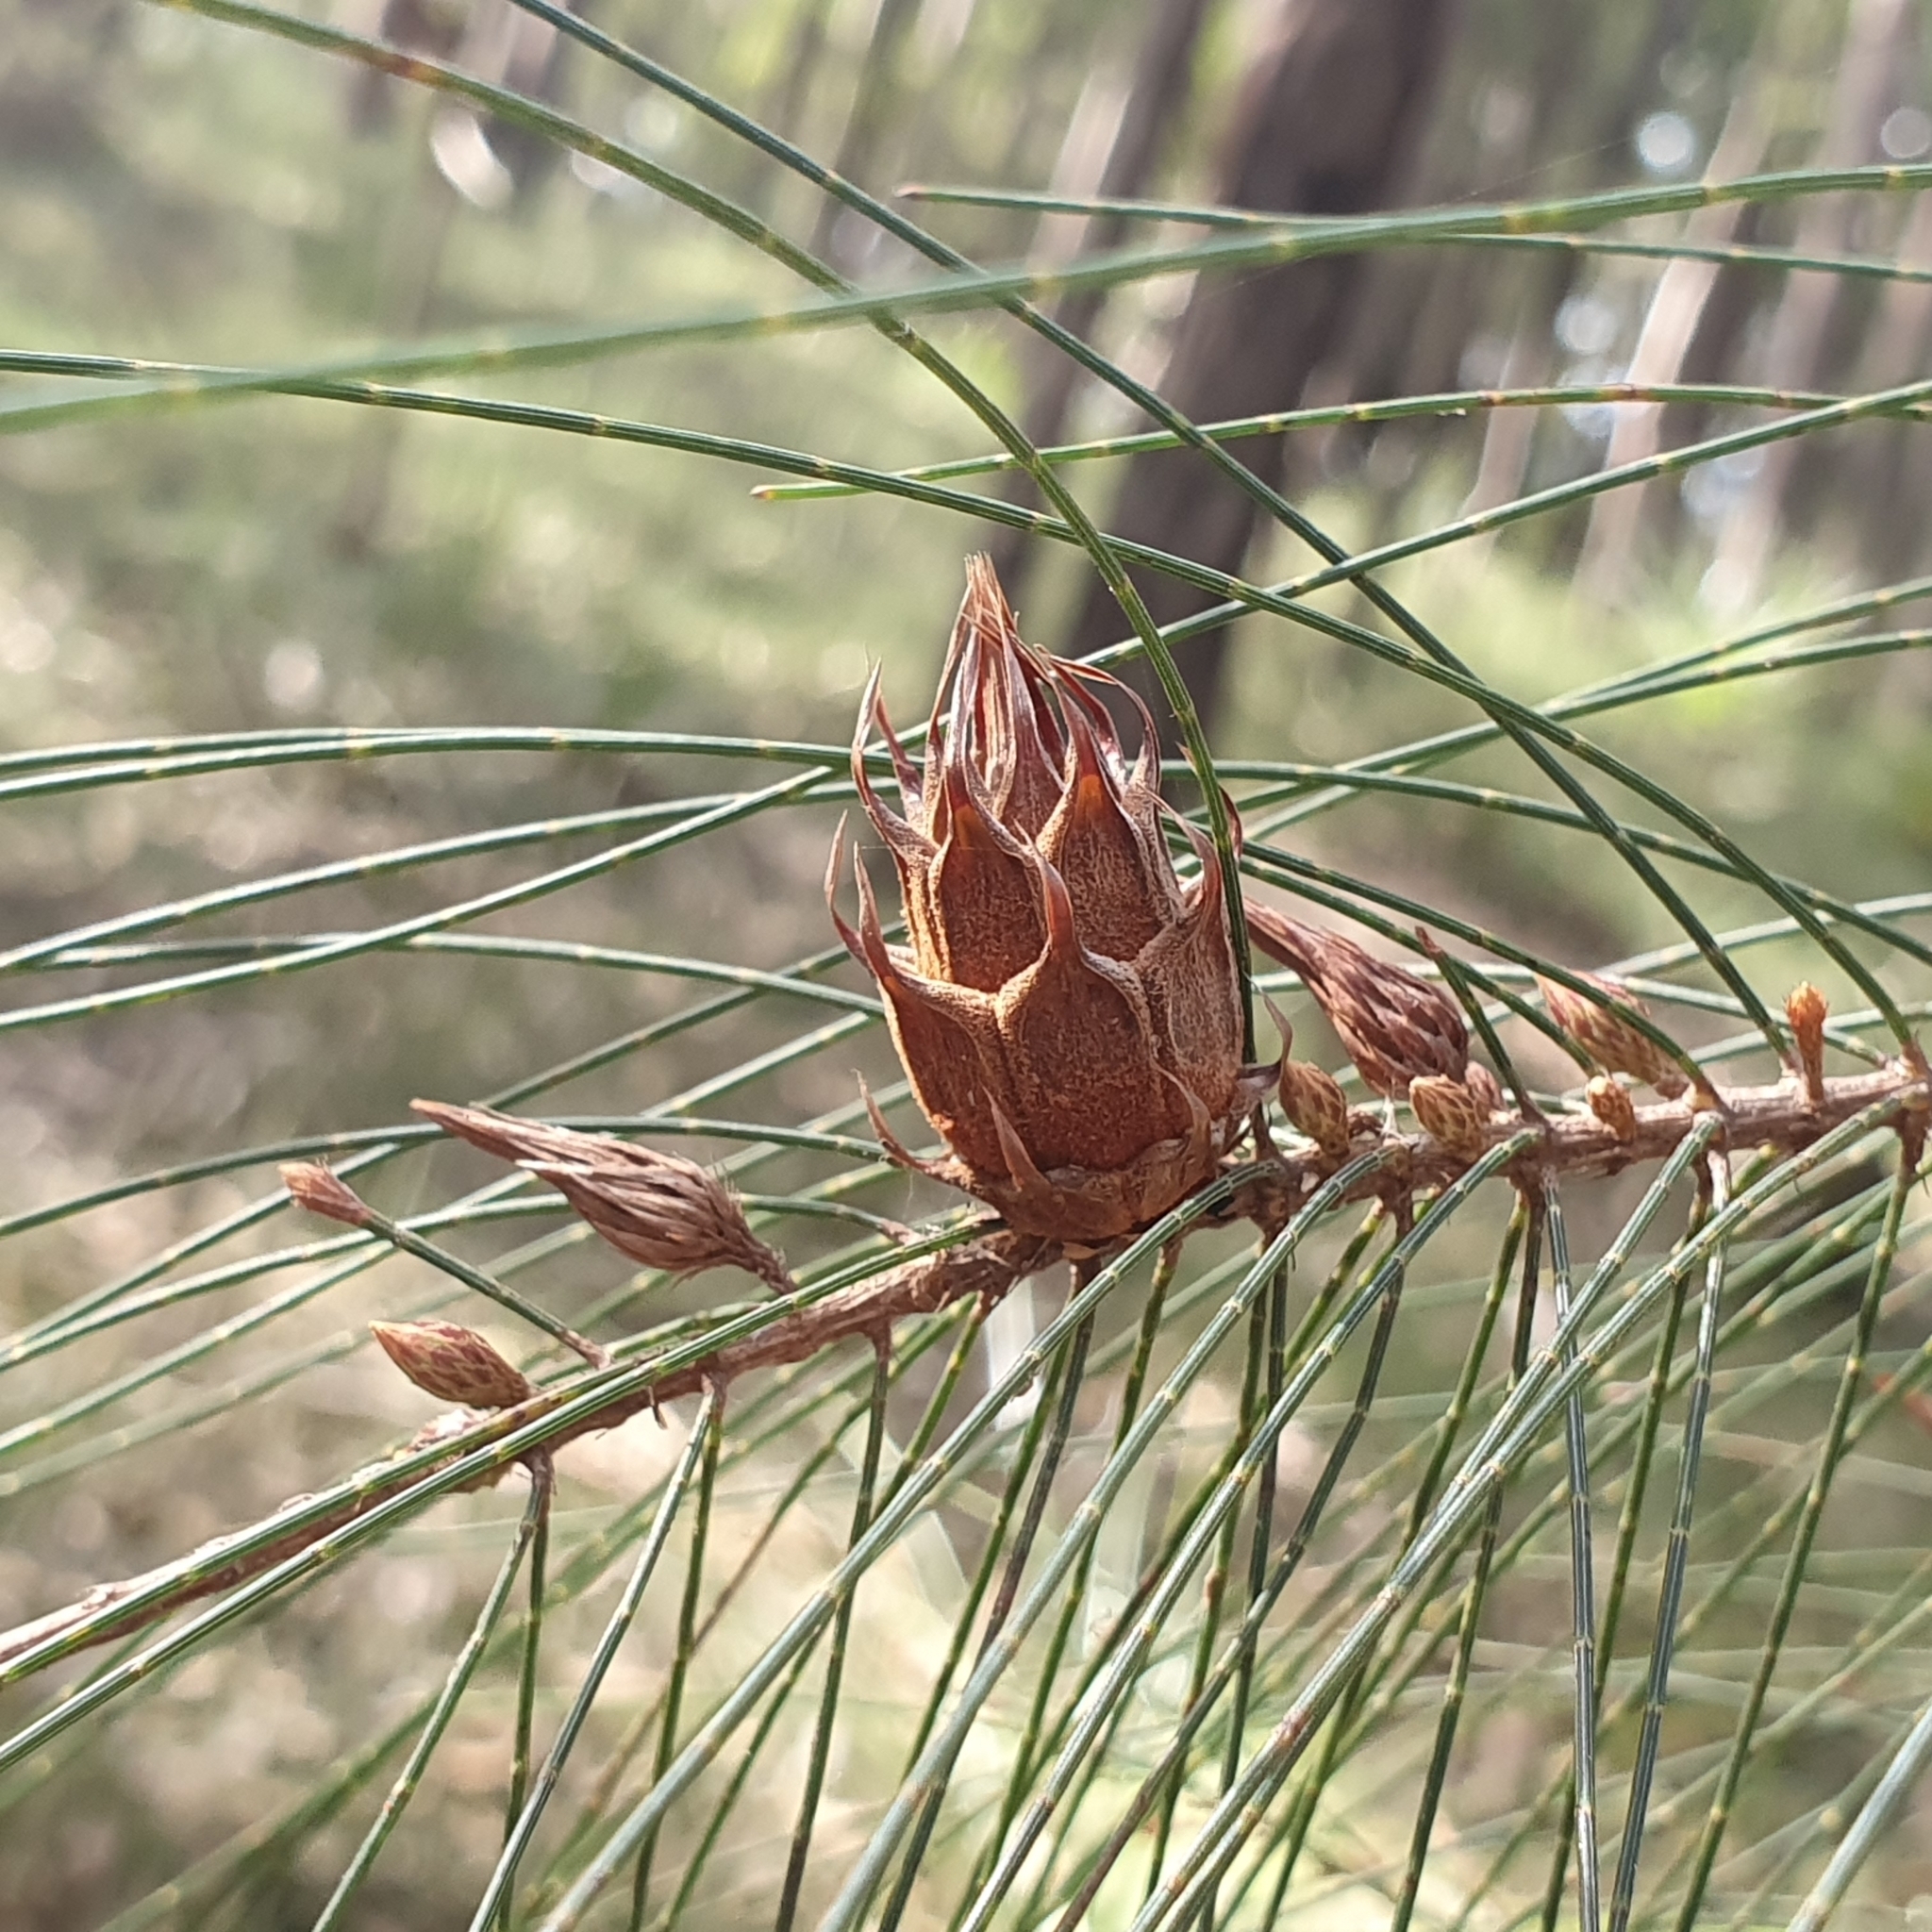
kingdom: Animalia
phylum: Arthropoda
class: Insecta
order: Hemiptera
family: Eriococcidae
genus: Cylindrococcus
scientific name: Cylindrococcus spiniferus
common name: Casuarina gall
